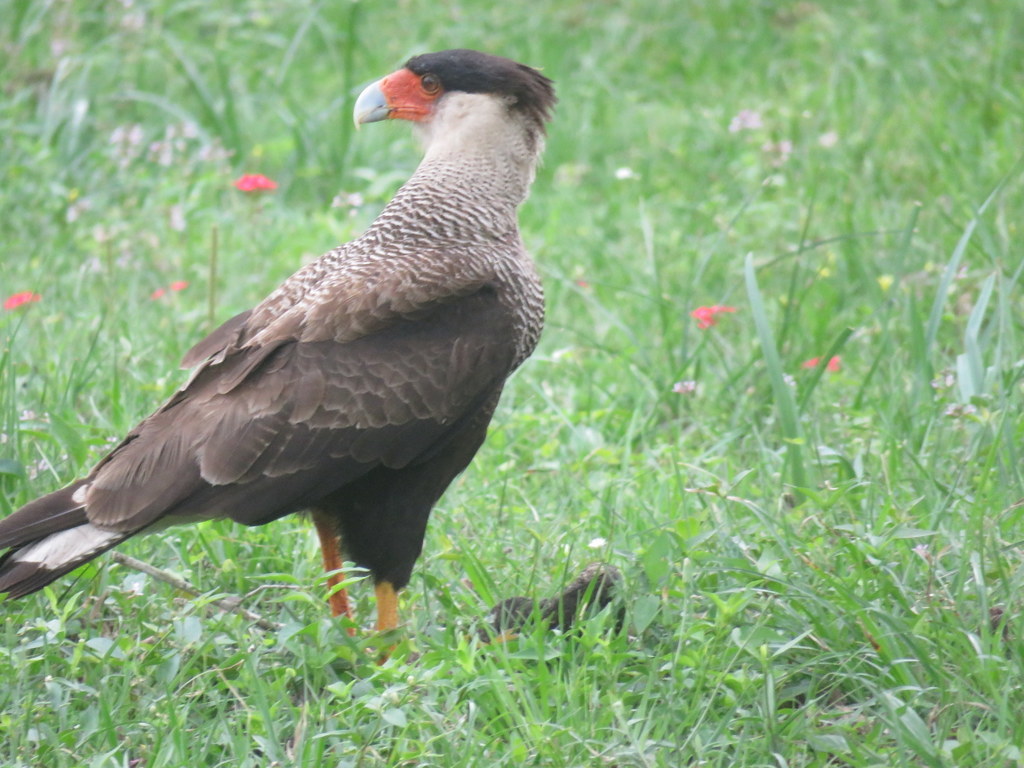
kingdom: Animalia
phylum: Chordata
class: Aves
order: Falconiformes
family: Falconidae
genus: Caracara
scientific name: Caracara plancus
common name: Southern caracara
